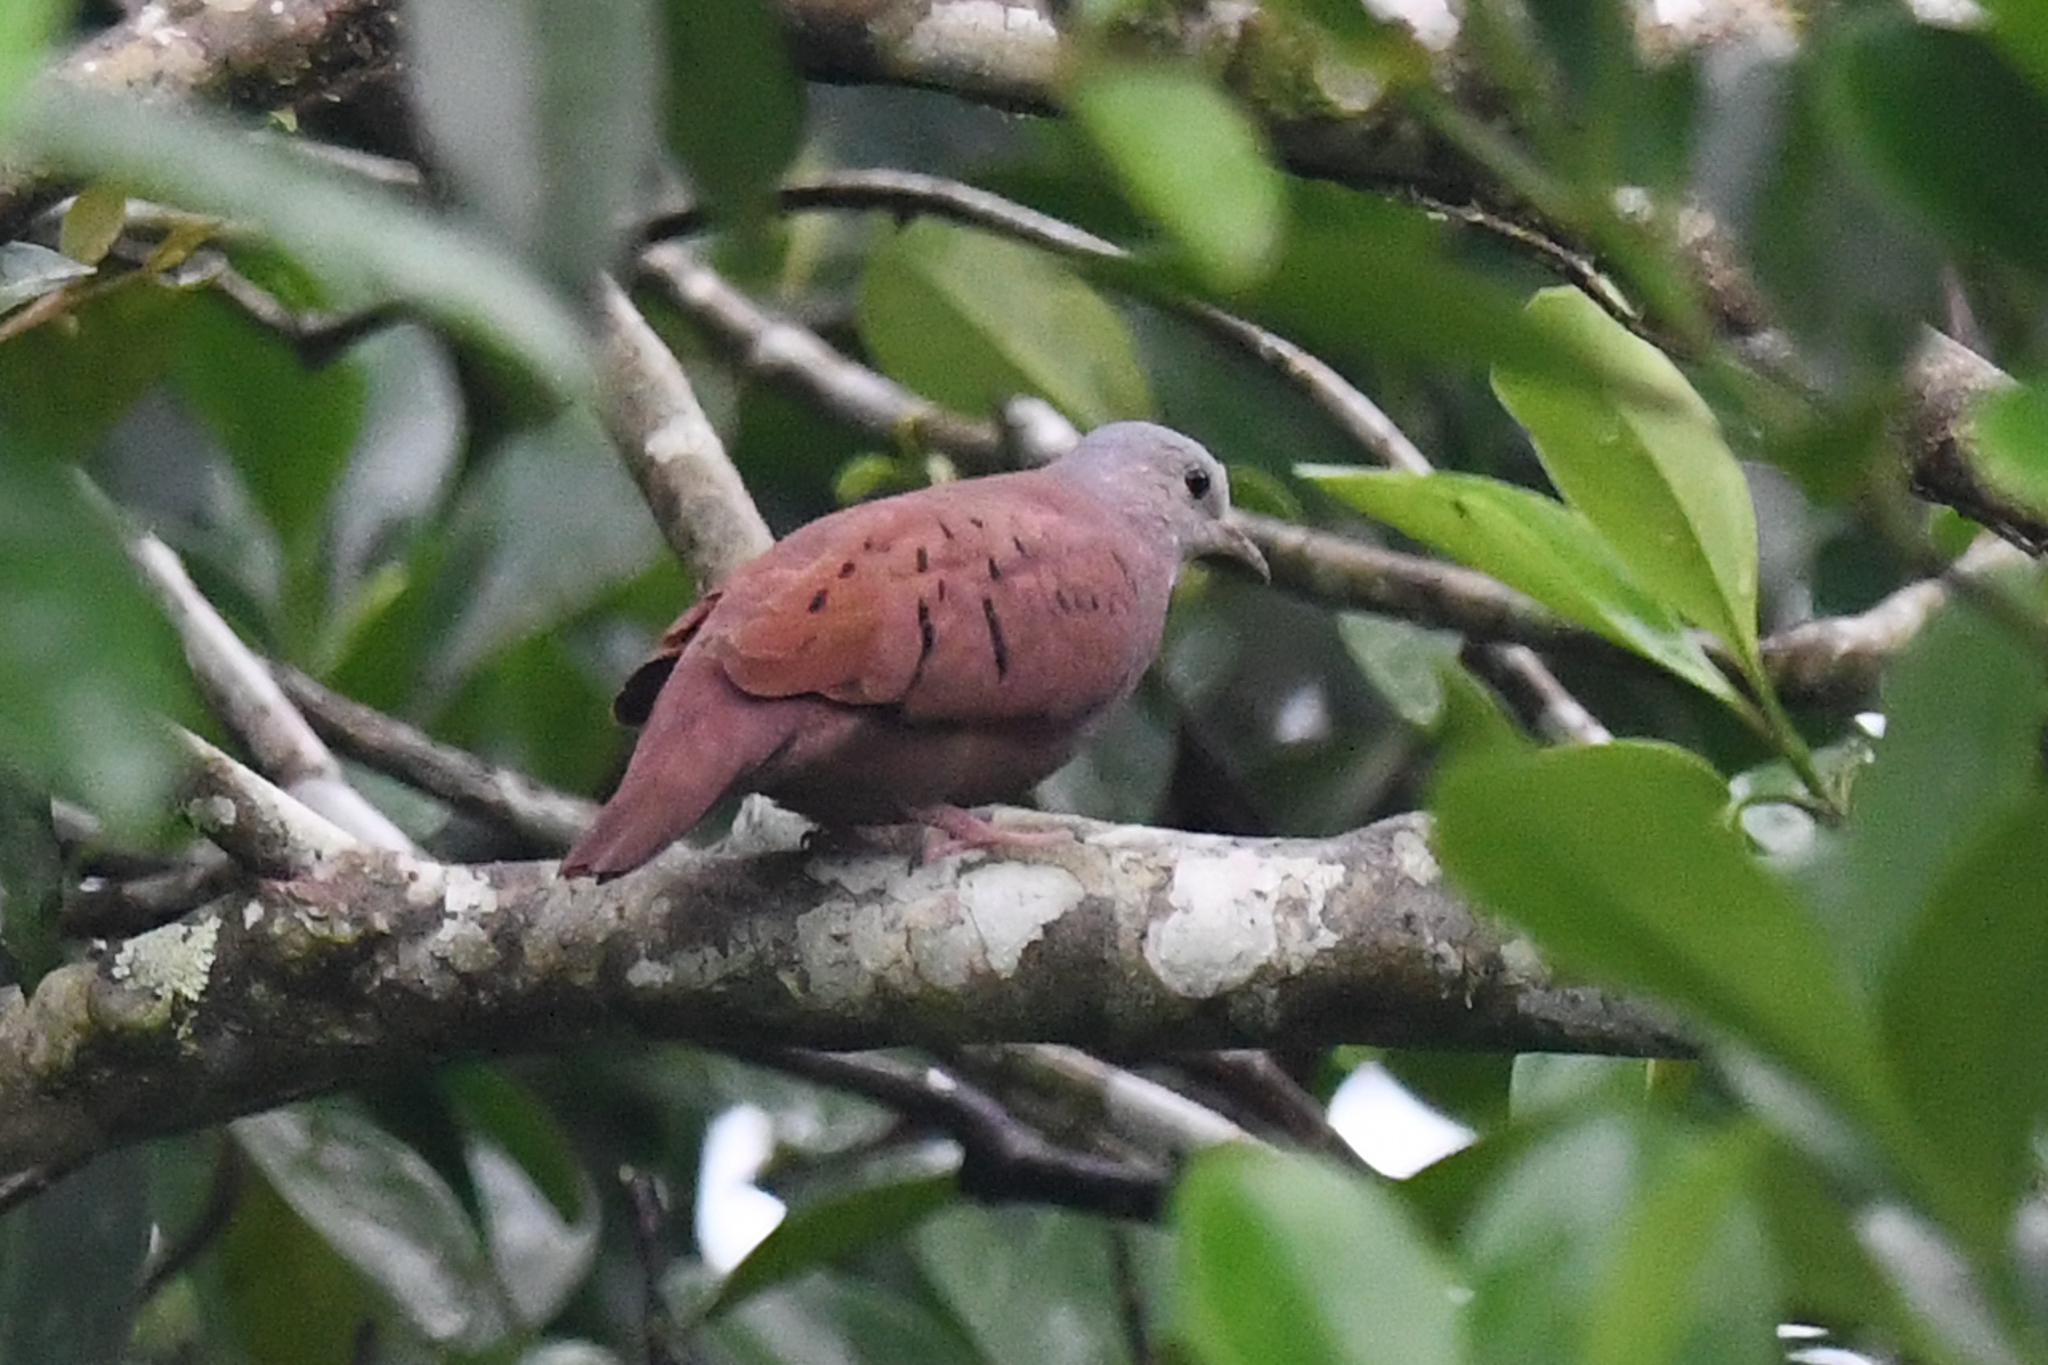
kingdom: Animalia
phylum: Chordata
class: Aves
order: Columbiformes
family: Columbidae
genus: Columbina
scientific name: Columbina talpacoti
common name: Ruddy ground dove
